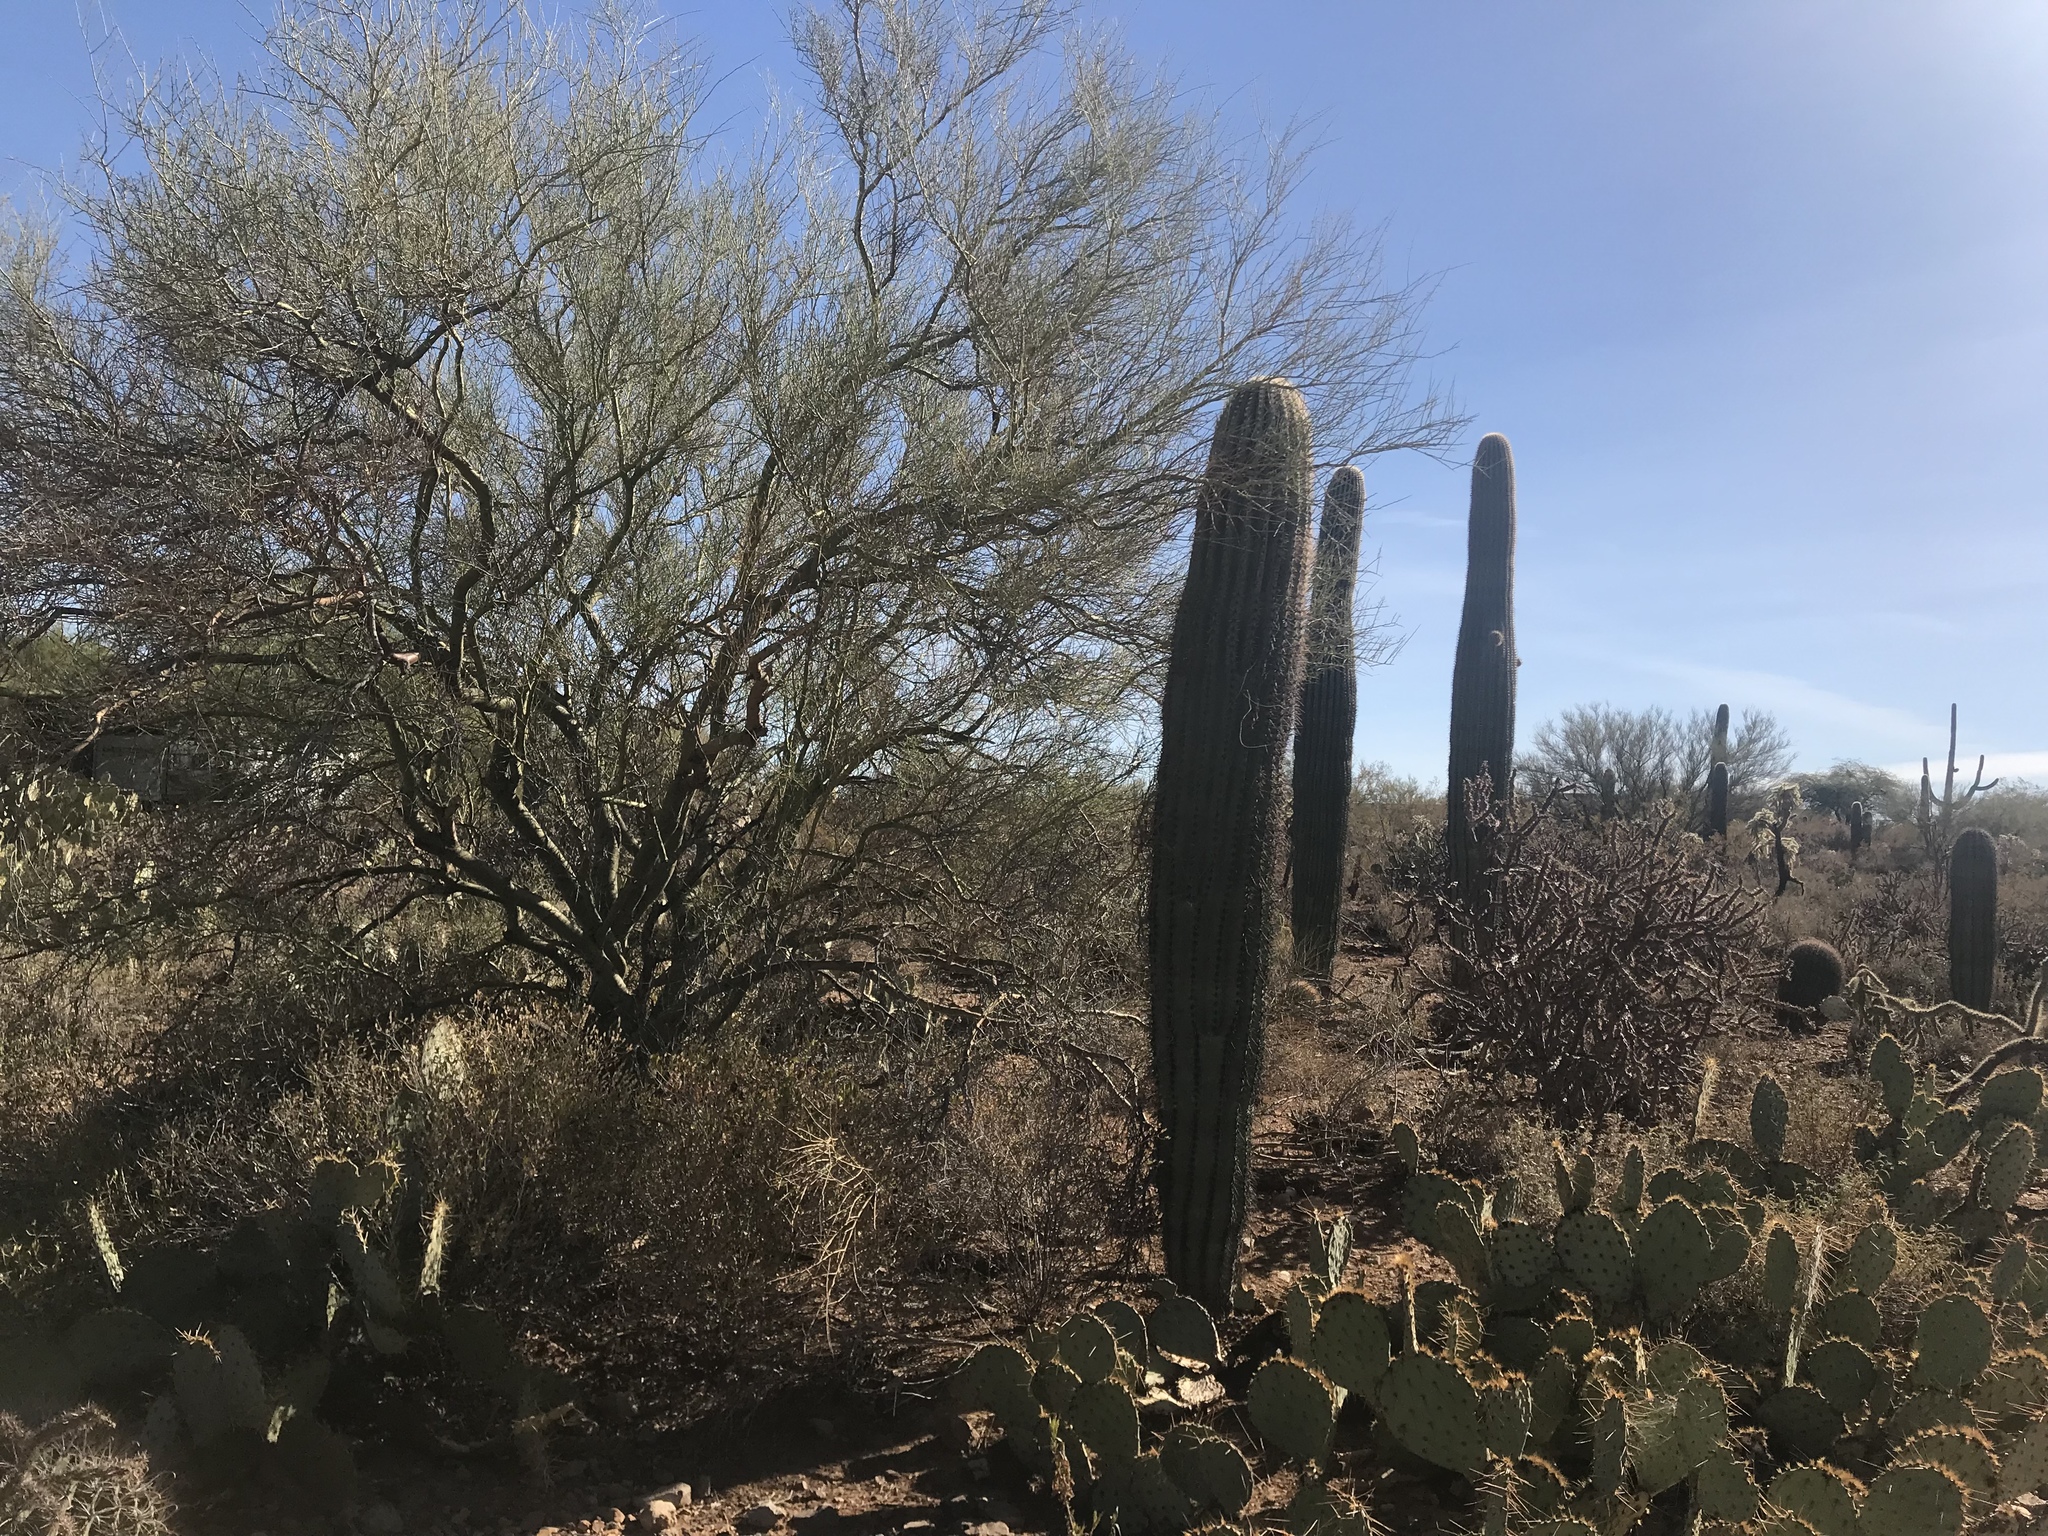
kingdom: Plantae
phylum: Tracheophyta
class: Magnoliopsida
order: Caryophyllales
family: Cactaceae
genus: Carnegiea
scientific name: Carnegiea gigantea
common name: Saguaro
